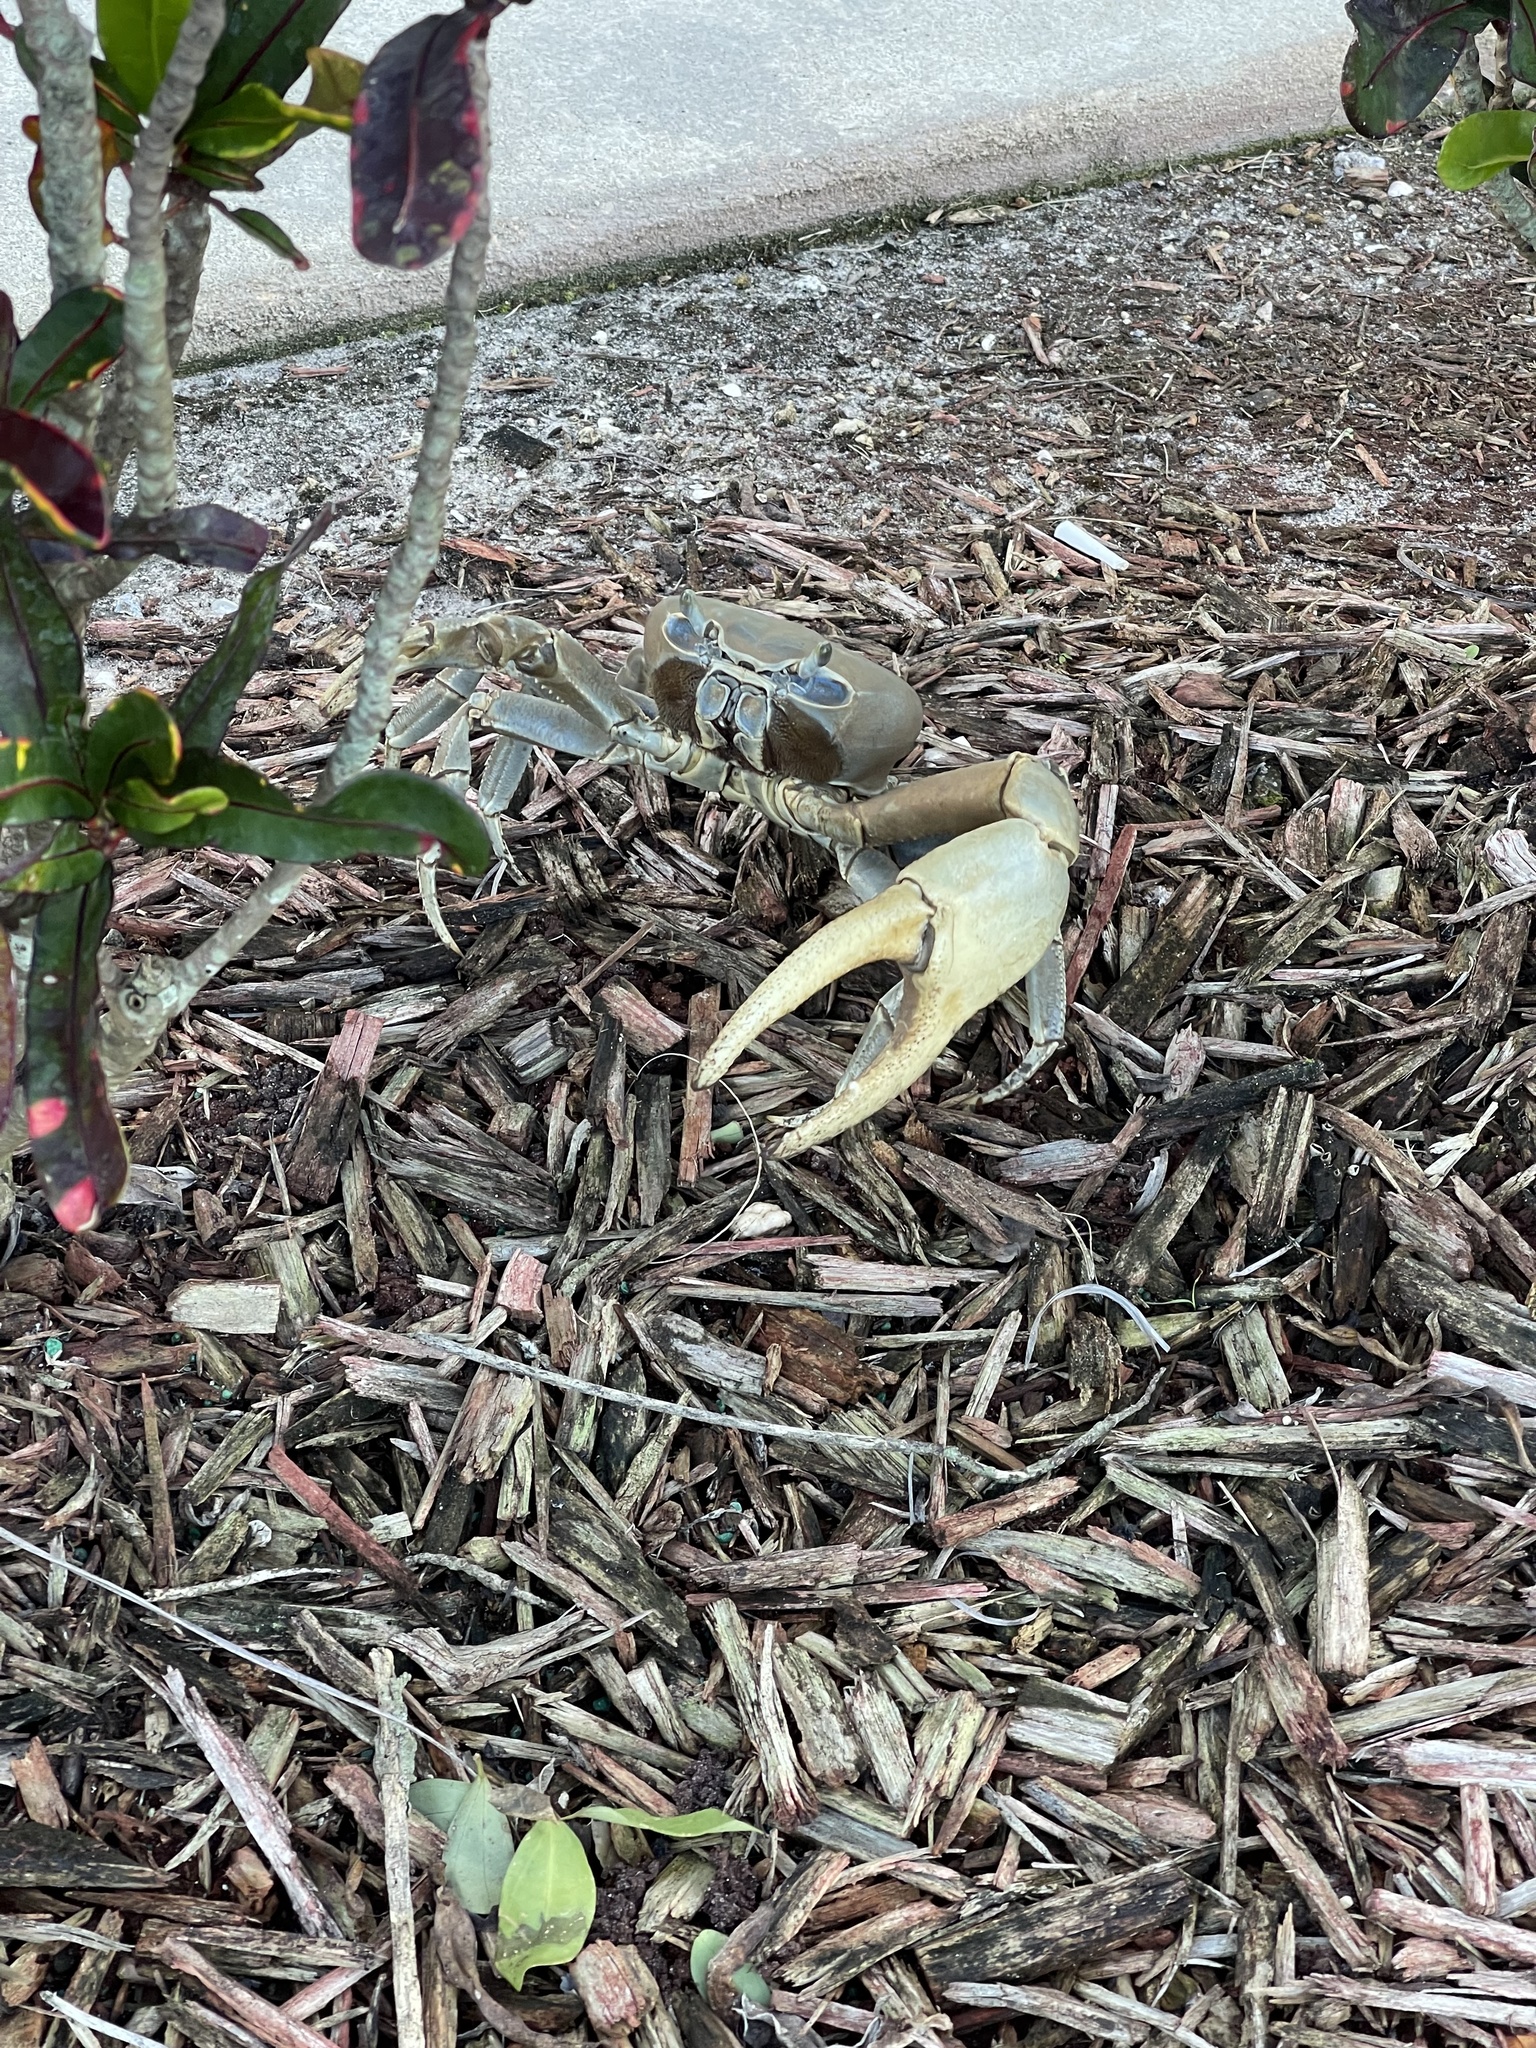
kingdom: Animalia
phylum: Arthropoda
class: Malacostraca
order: Decapoda
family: Gecarcinidae
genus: Cardisoma
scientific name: Cardisoma guanhumi
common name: Great land crab
